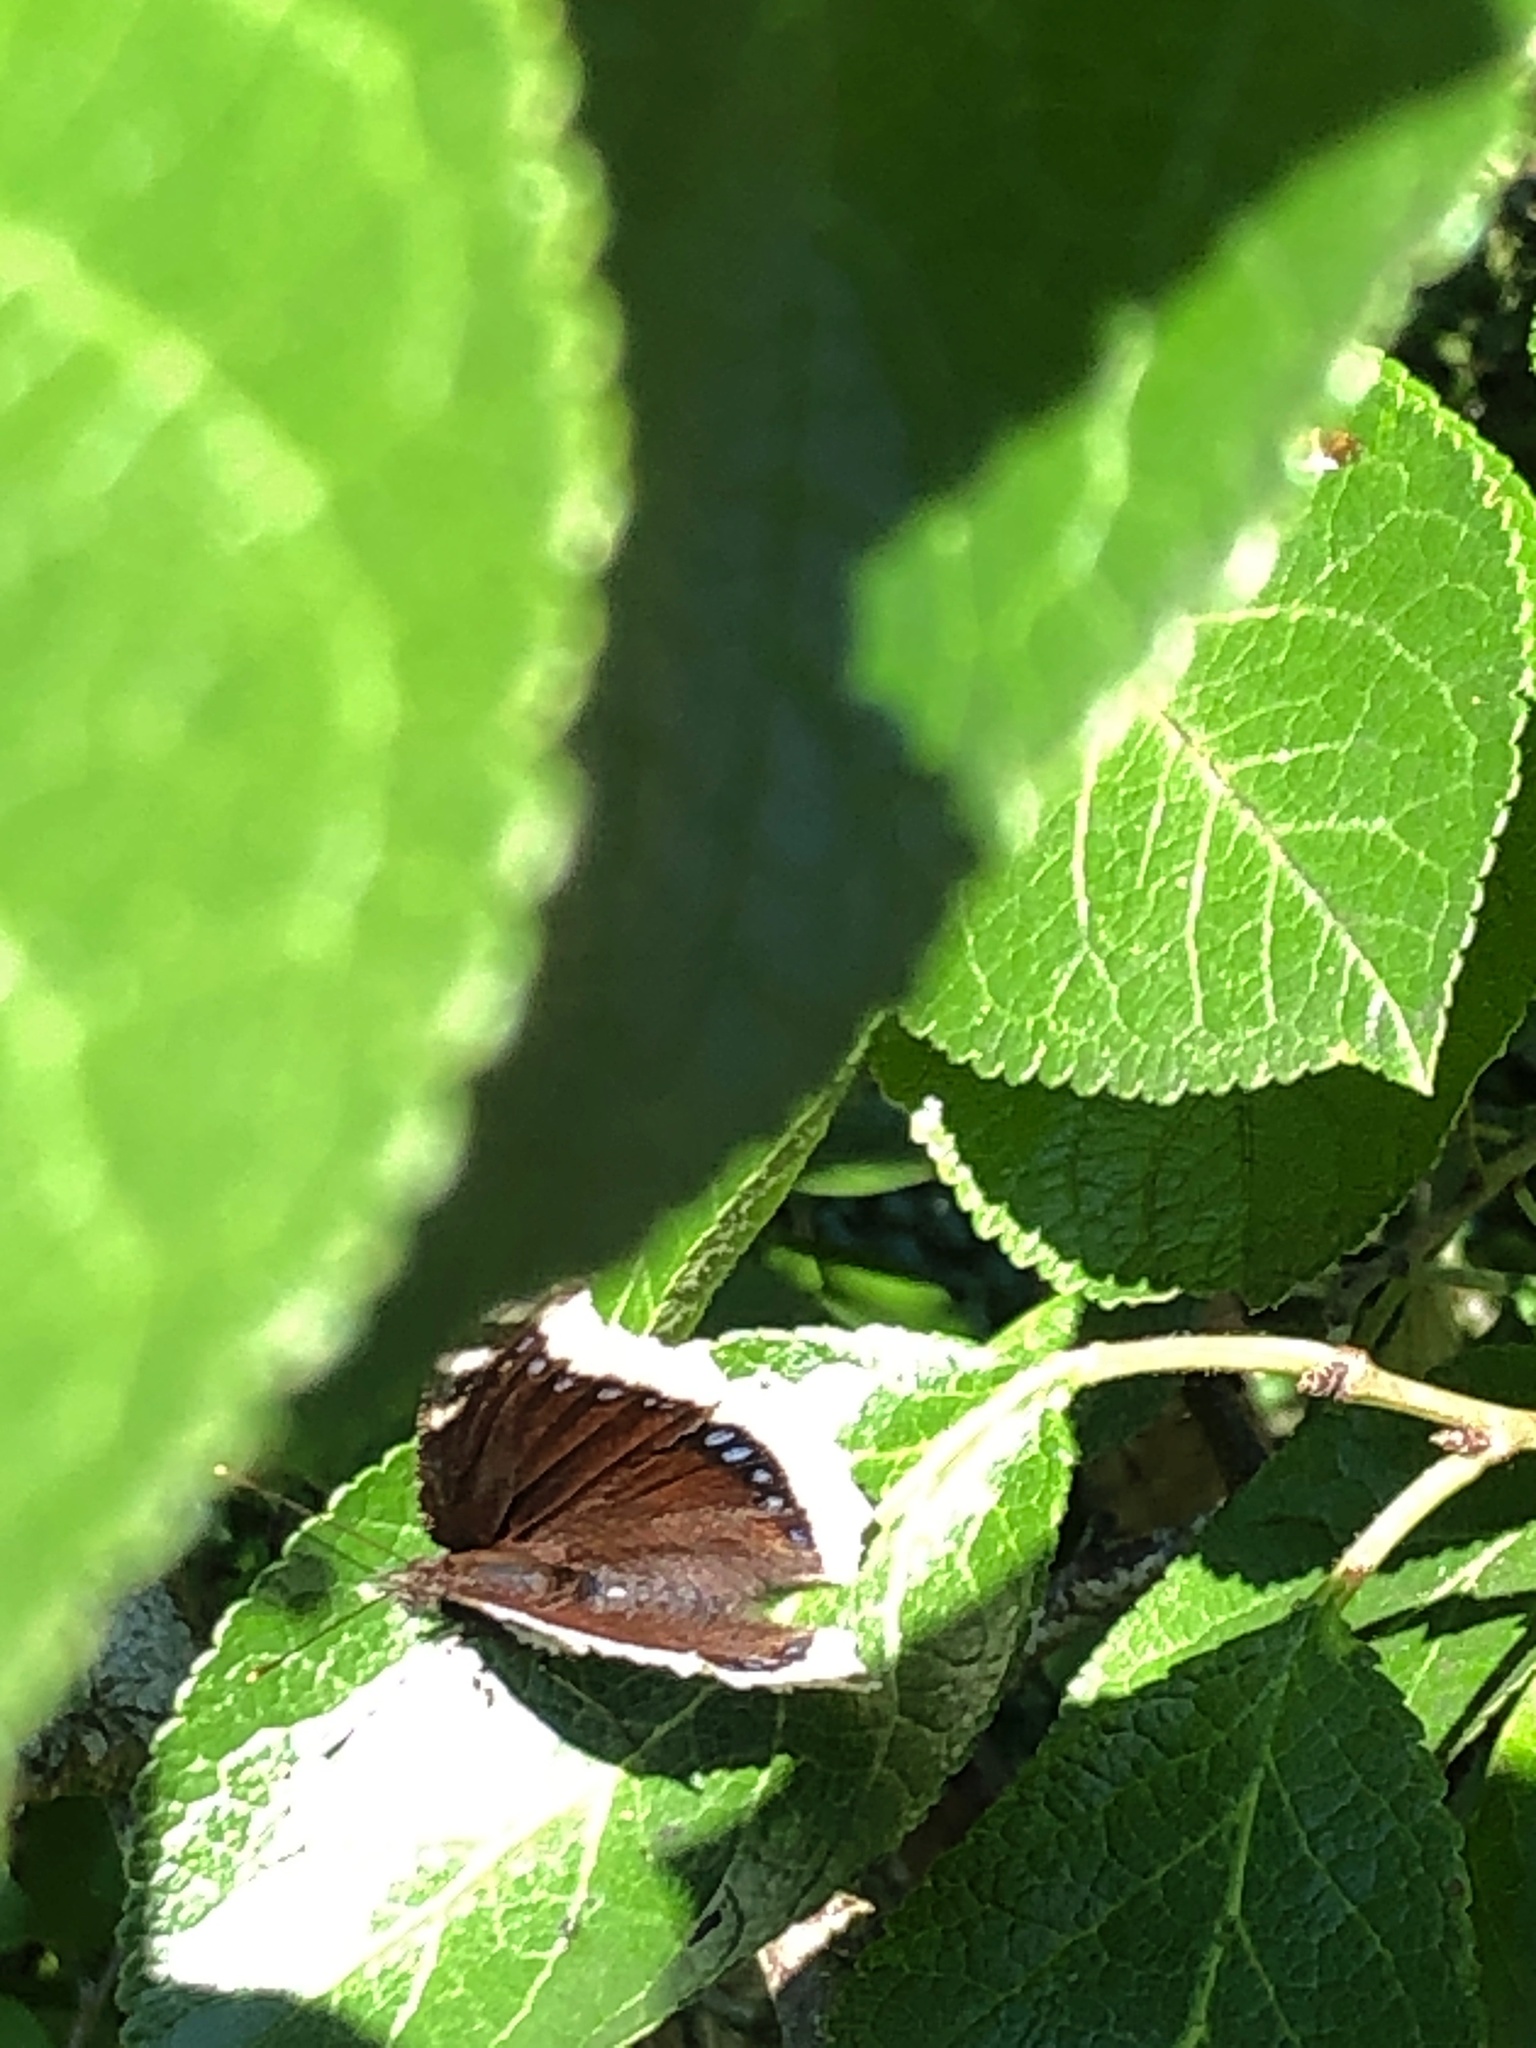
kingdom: Animalia
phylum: Arthropoda
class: Insecta
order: Lepidoptera
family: Nymphalidae
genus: Nymphalis
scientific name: Nymphalis antiopa
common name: Camberwell beauty
